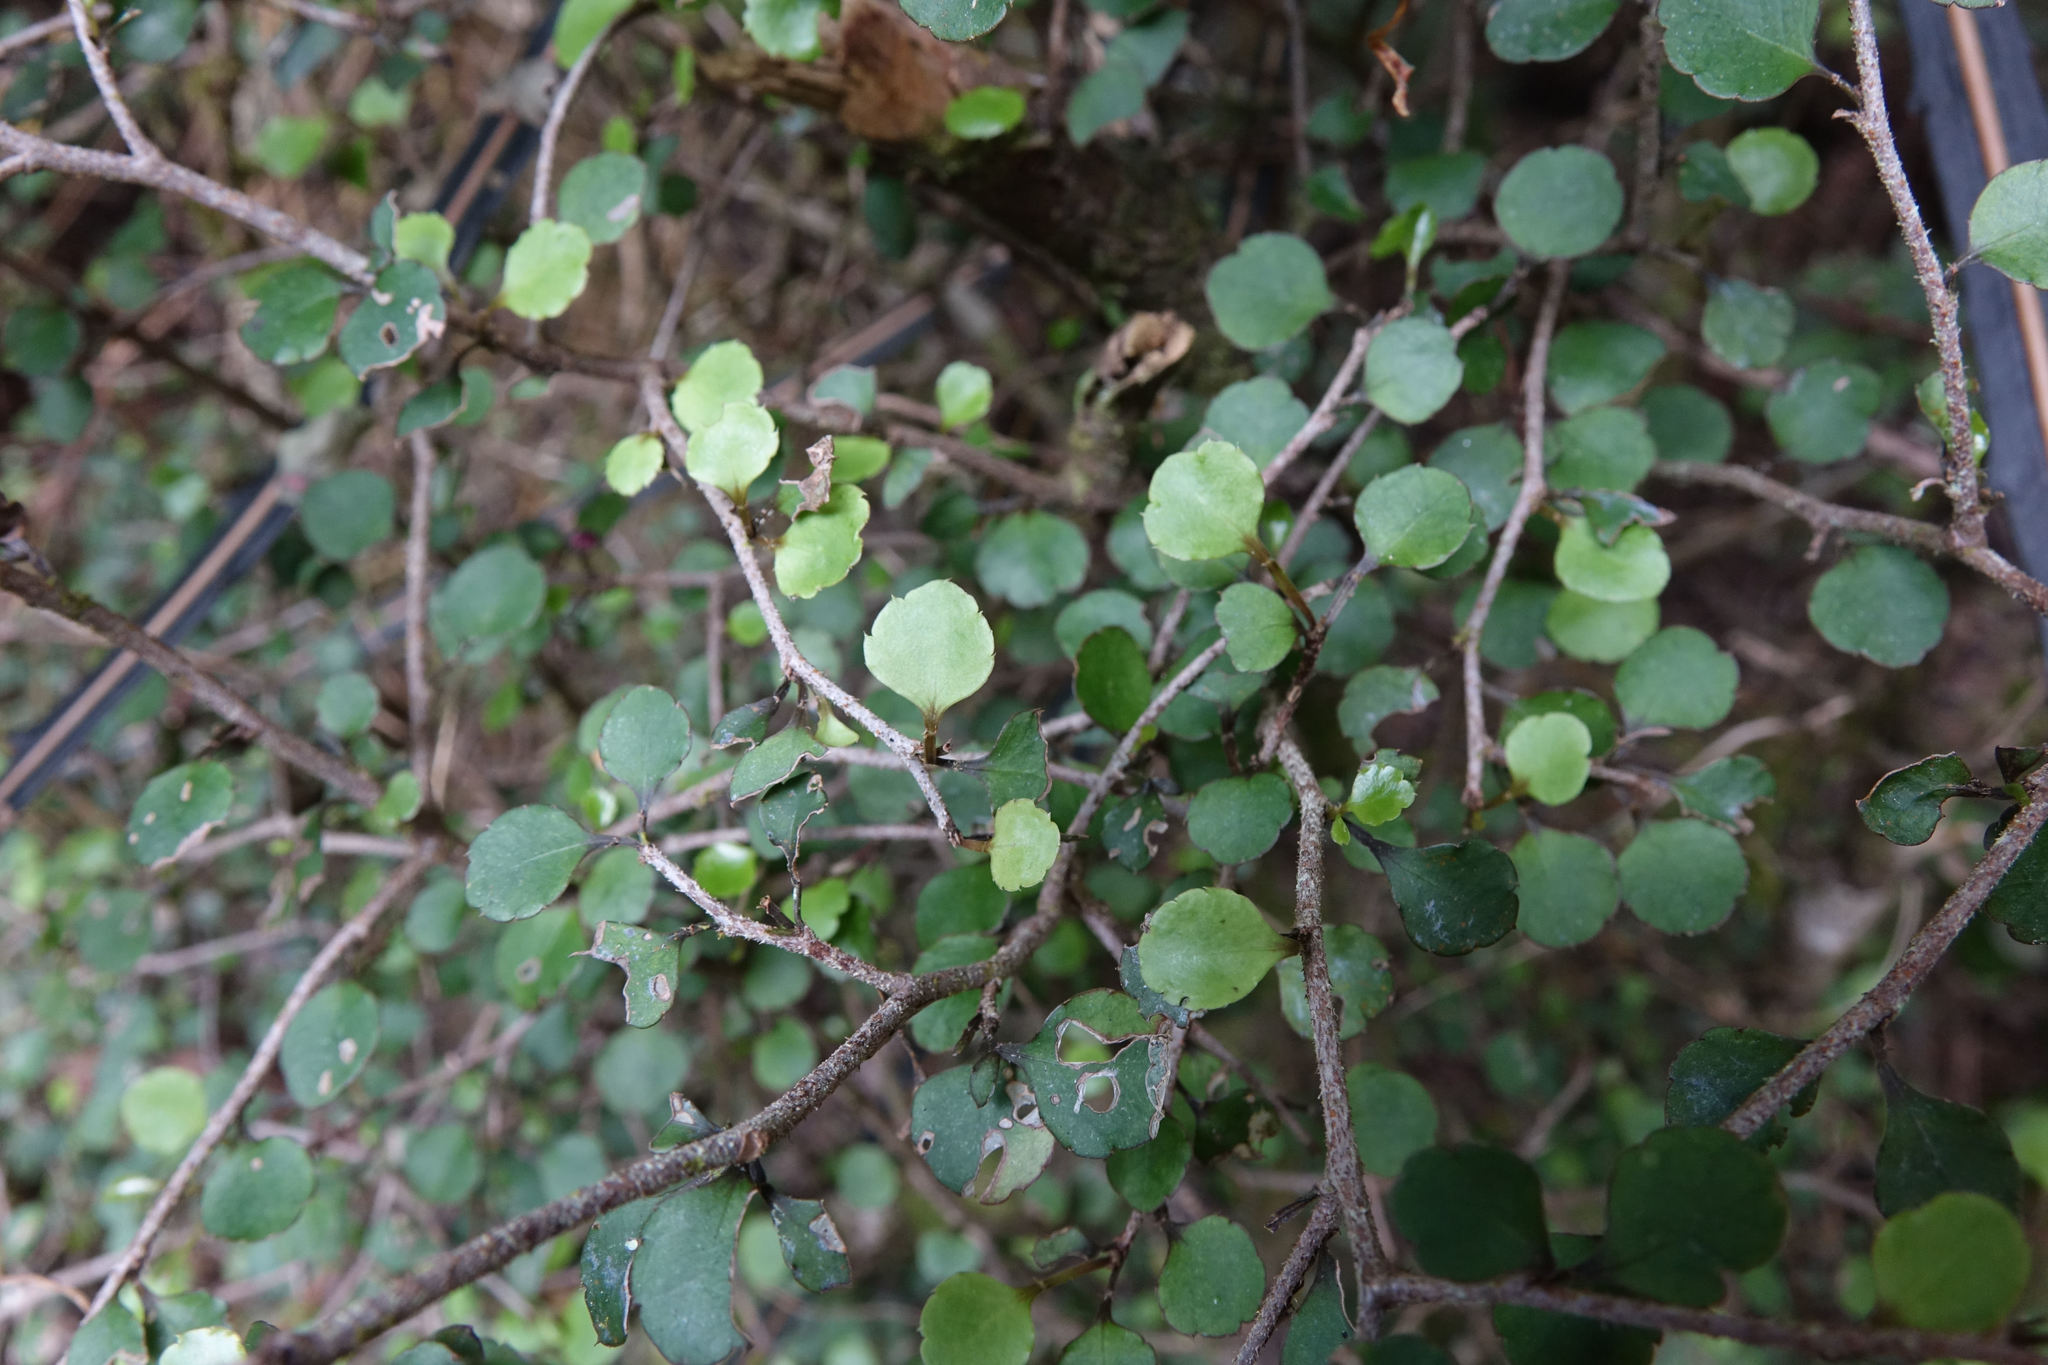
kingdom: Plantae
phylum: Tracheophyta
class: Magnoliopsida
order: Apiales
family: Araliaceae
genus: Raukaua
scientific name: Raukaua anomalus
